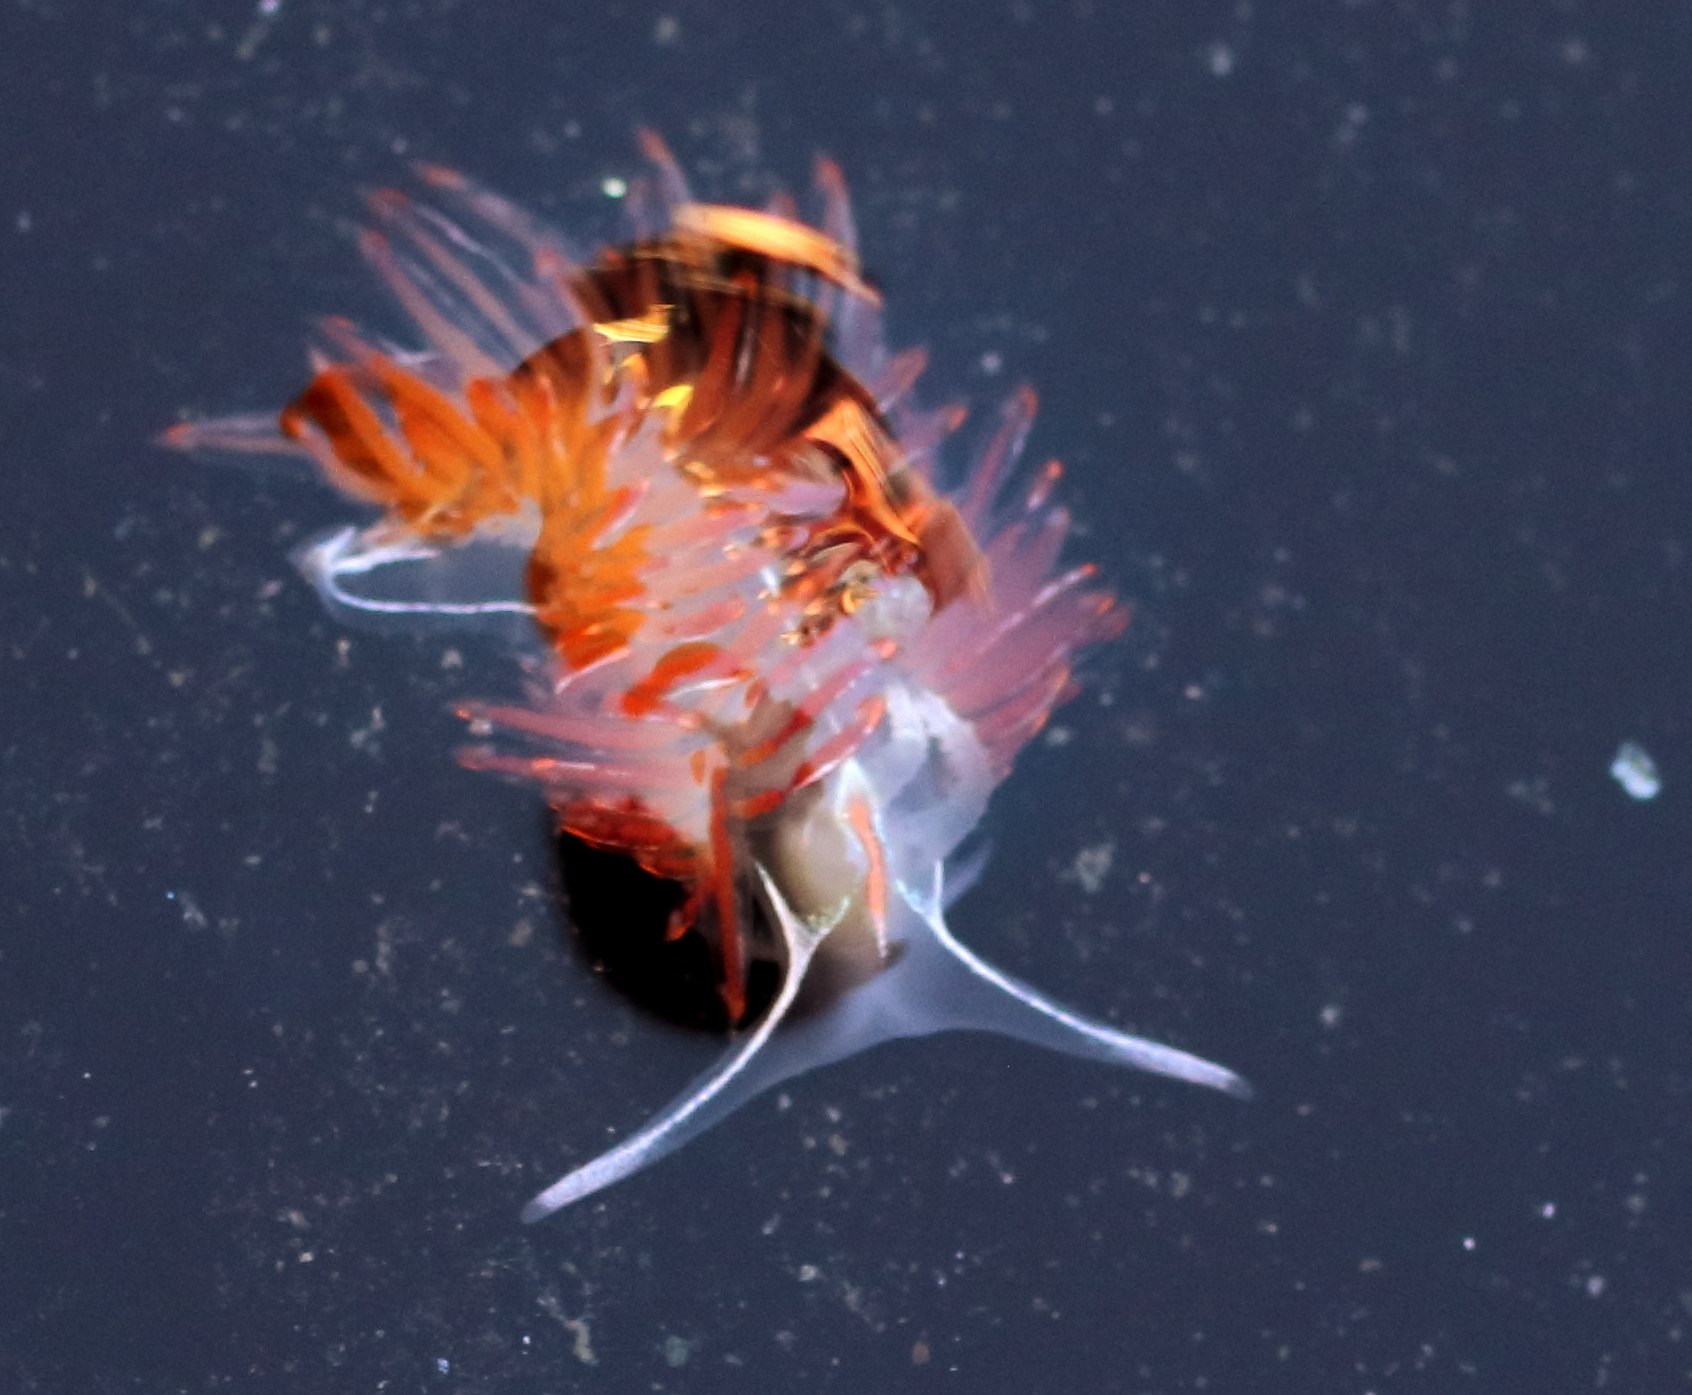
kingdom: Animalia
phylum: Mollusca
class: Gastropoda
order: Nudibranchia
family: Myrrhinidae
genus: Hermissenda
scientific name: Hermissenda crassicornis
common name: Hermissenda
